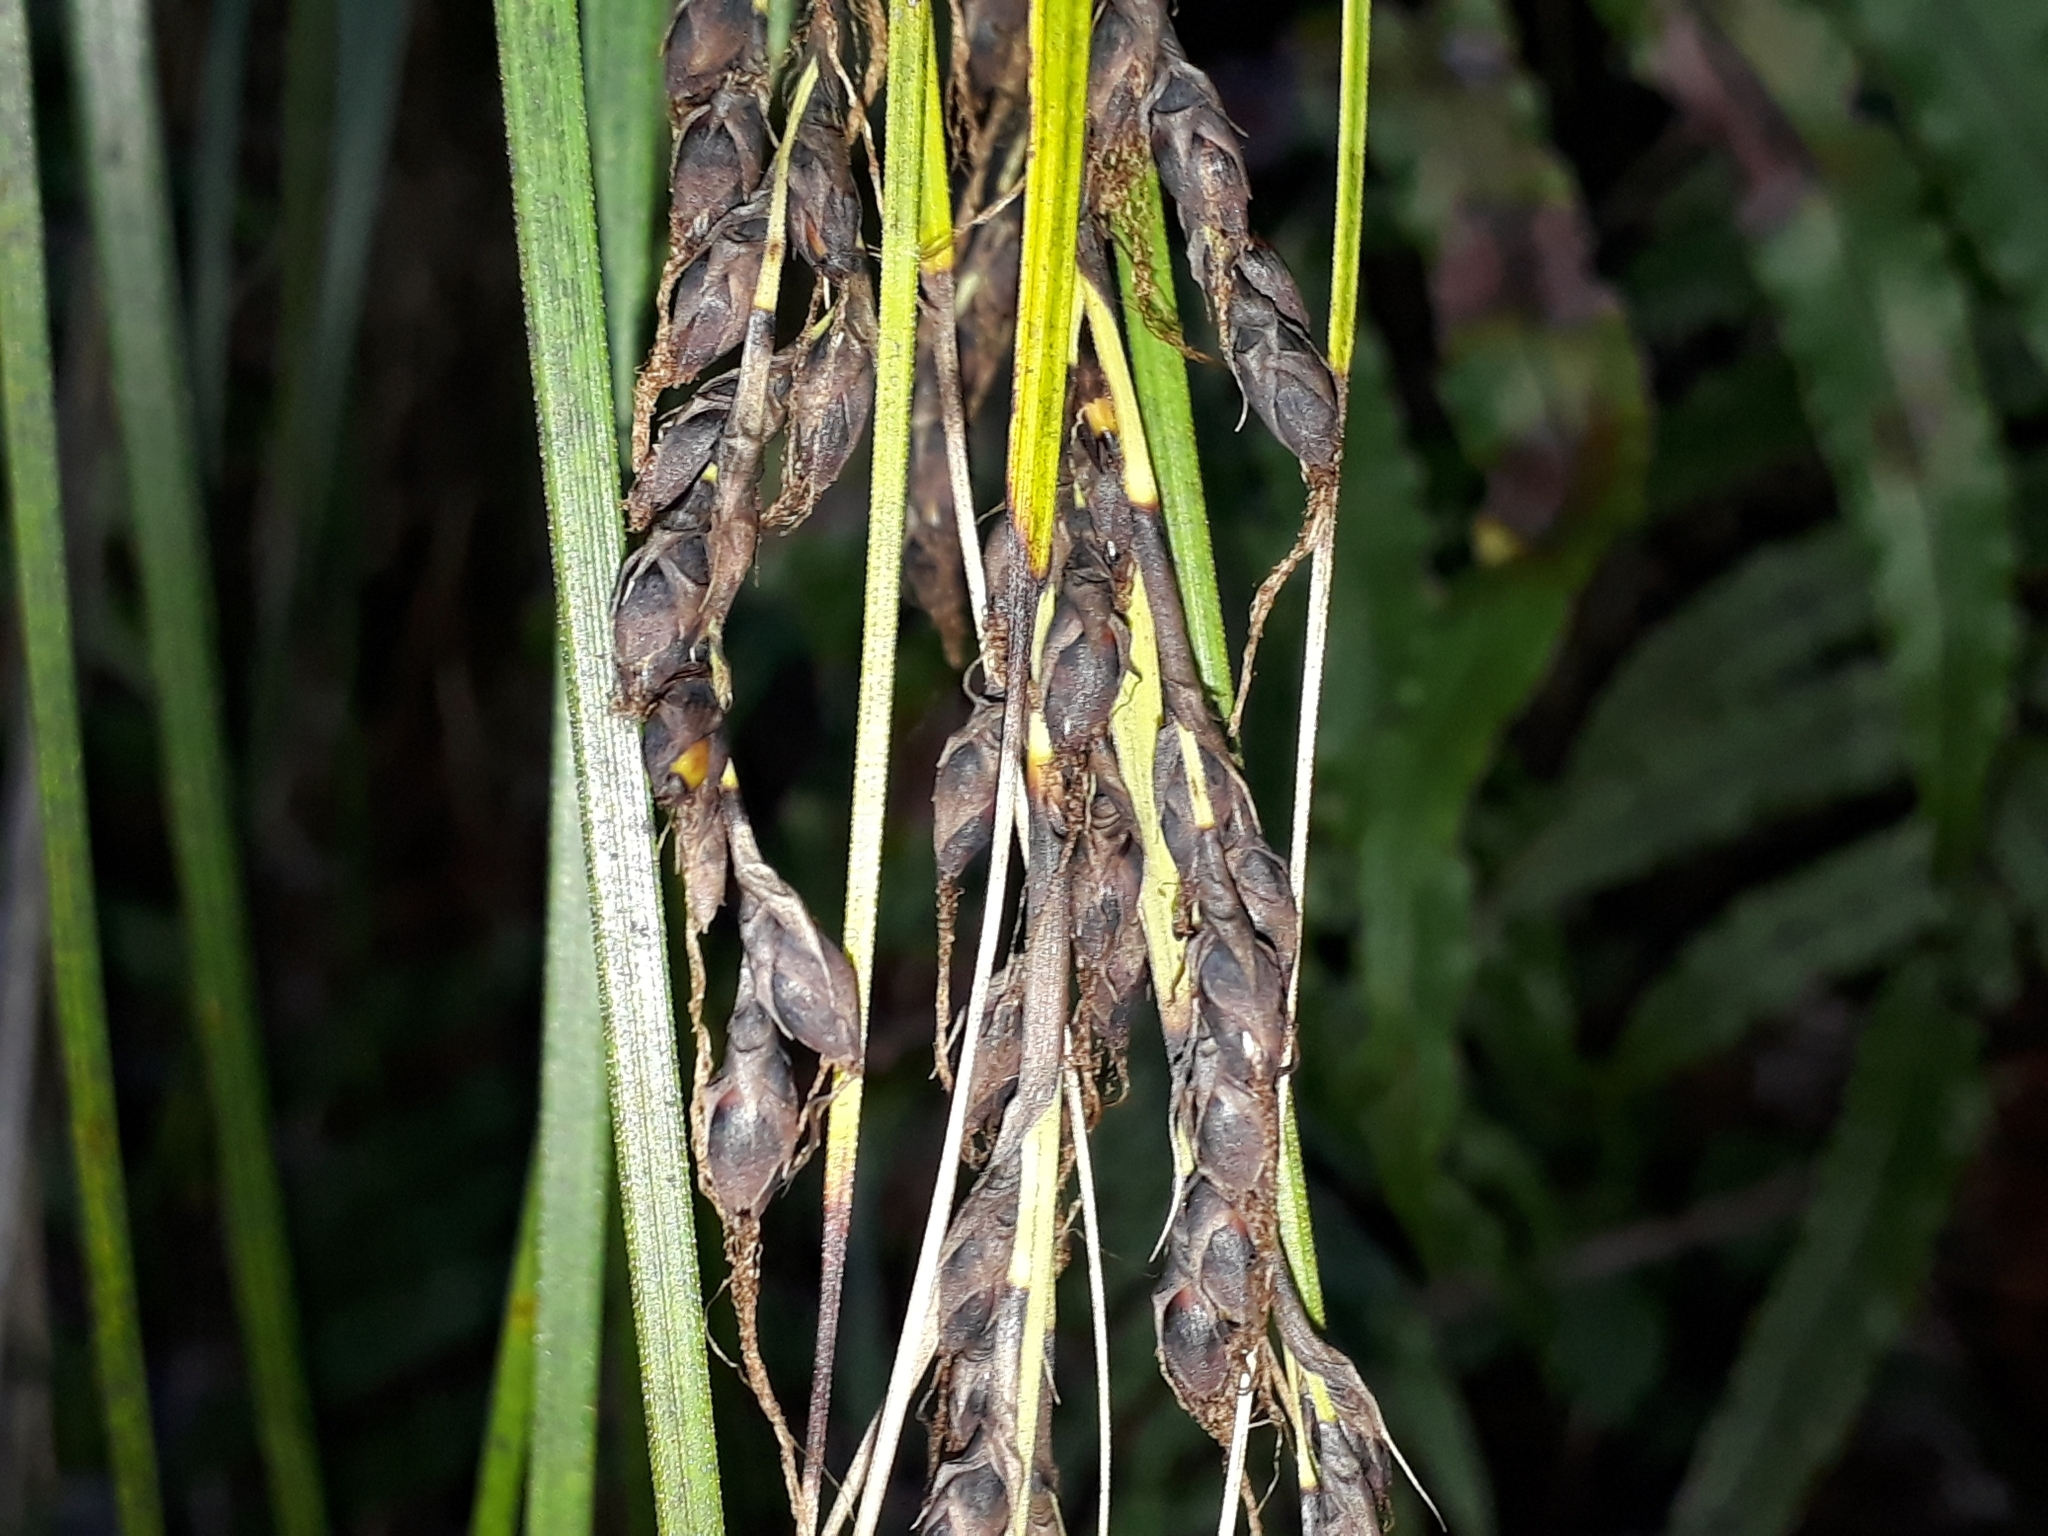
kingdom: Plantae
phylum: Tracheophyta
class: Liliopsida
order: Poales
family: Cyperaceae
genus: Gahnia
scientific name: Gahnia pauciflora
